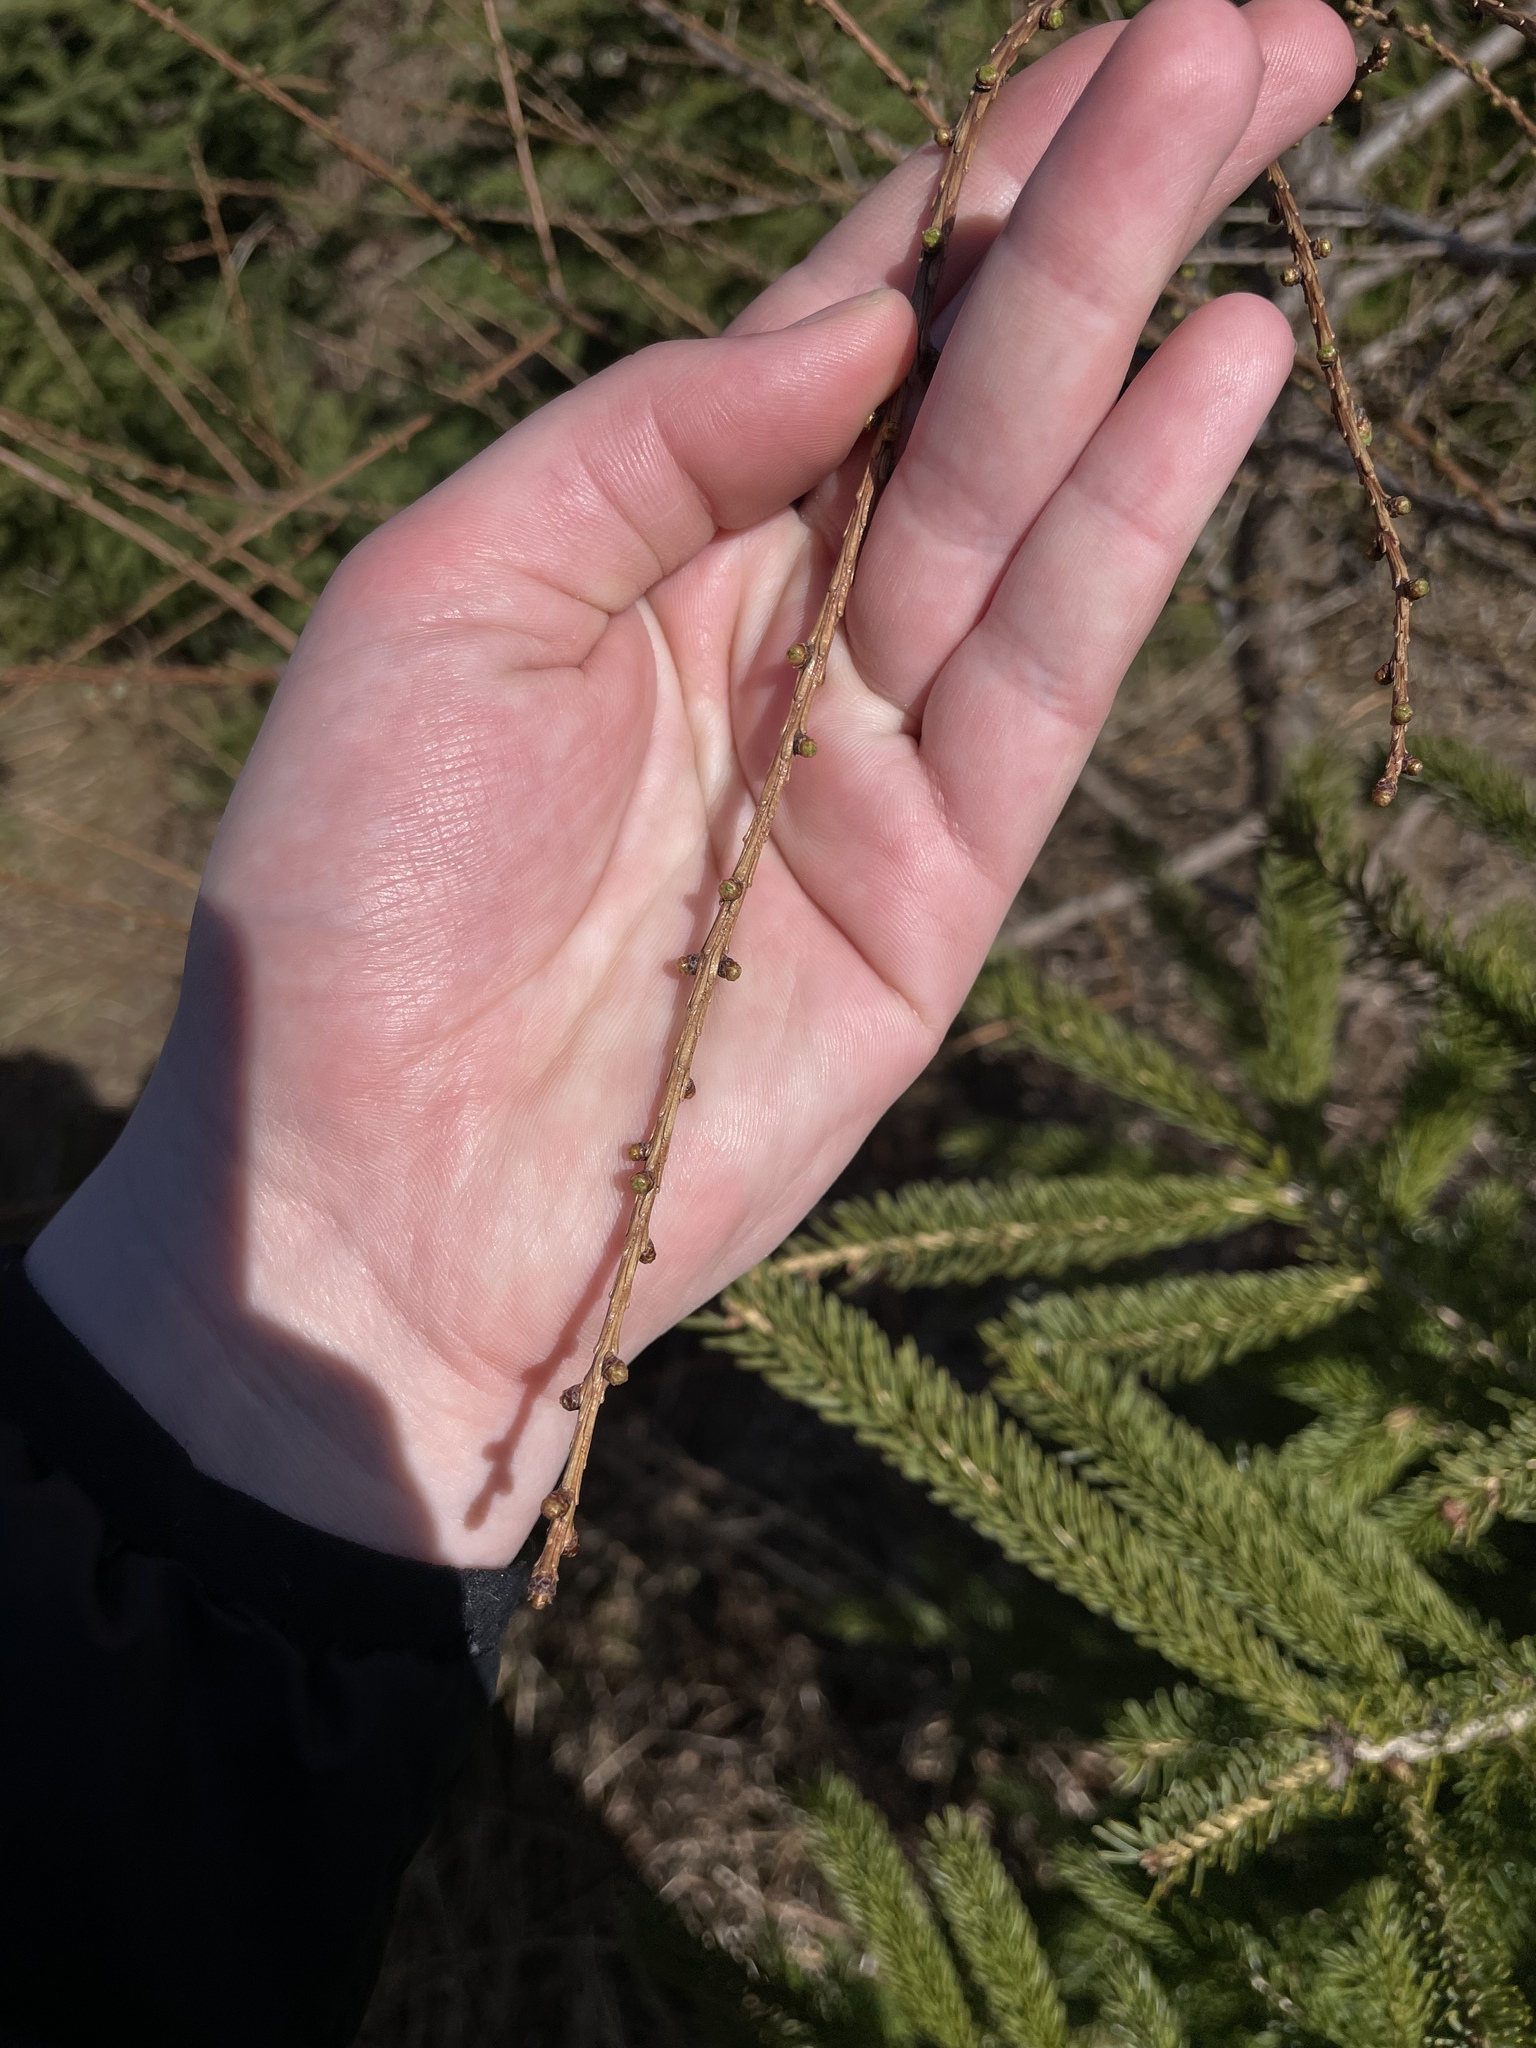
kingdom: Plantae
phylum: Tracheophyta
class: Pinopsida
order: Pinales
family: Pinaceae
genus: Larix
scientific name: Larix laricina
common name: American larch
